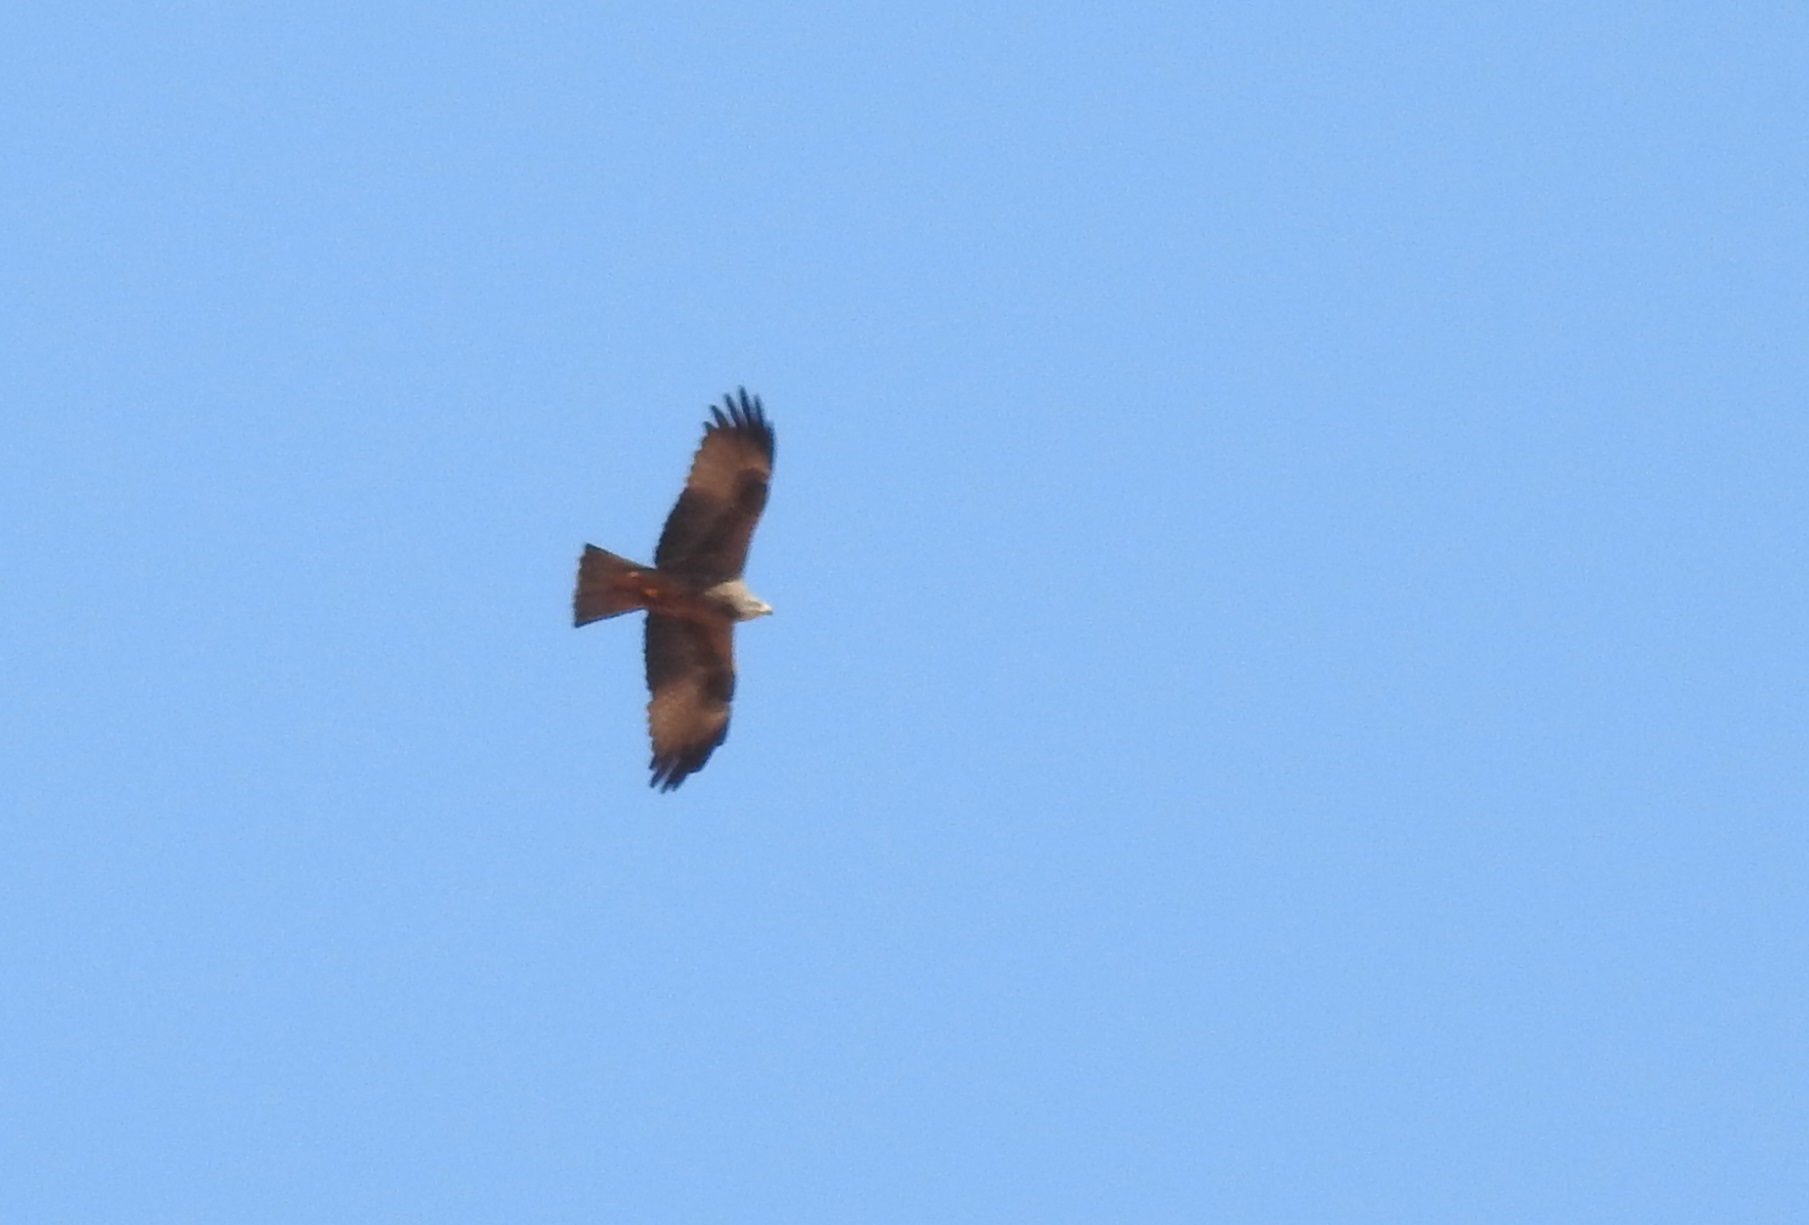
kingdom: Animalia
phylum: Chordata
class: Aves
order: Accipitriformes
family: Accipitridae
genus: Milvus
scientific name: Milvus migrans
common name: Black kite
